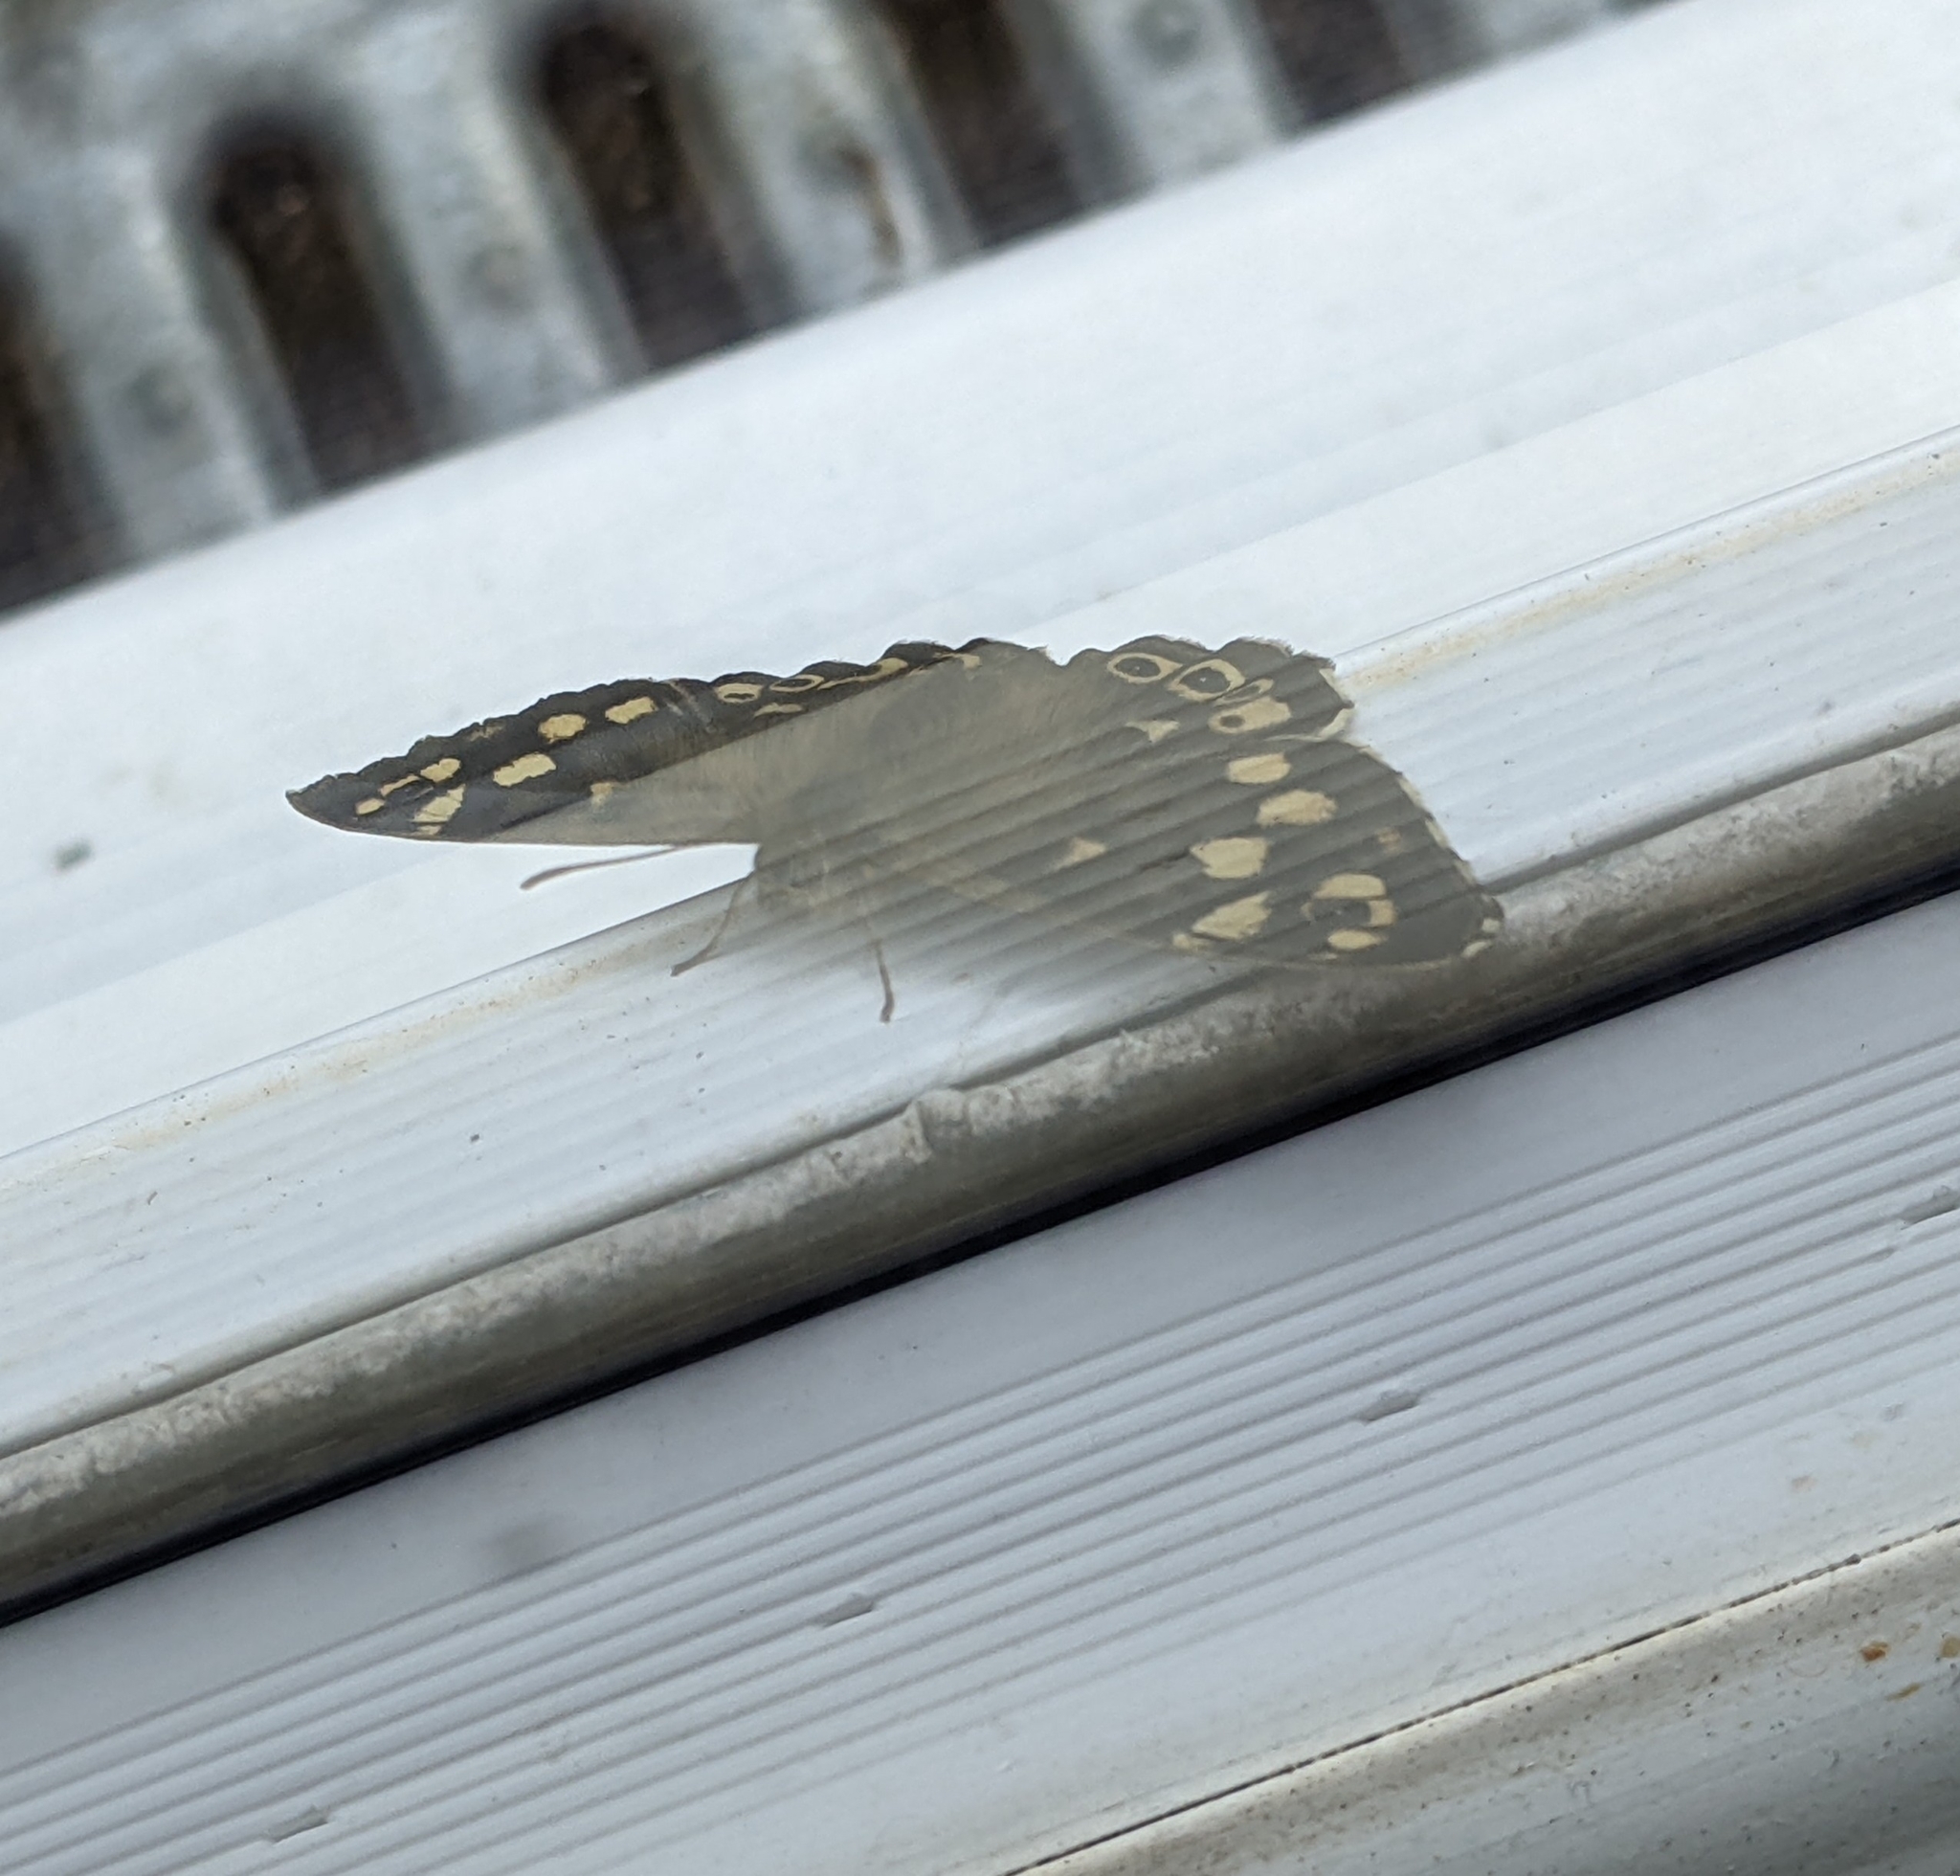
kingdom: Animalia
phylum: Arthropoda
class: Insecta
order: Lepidoptera
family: Nymphalidae
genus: Pararge
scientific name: Pararge aegeria
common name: Speckled wood
